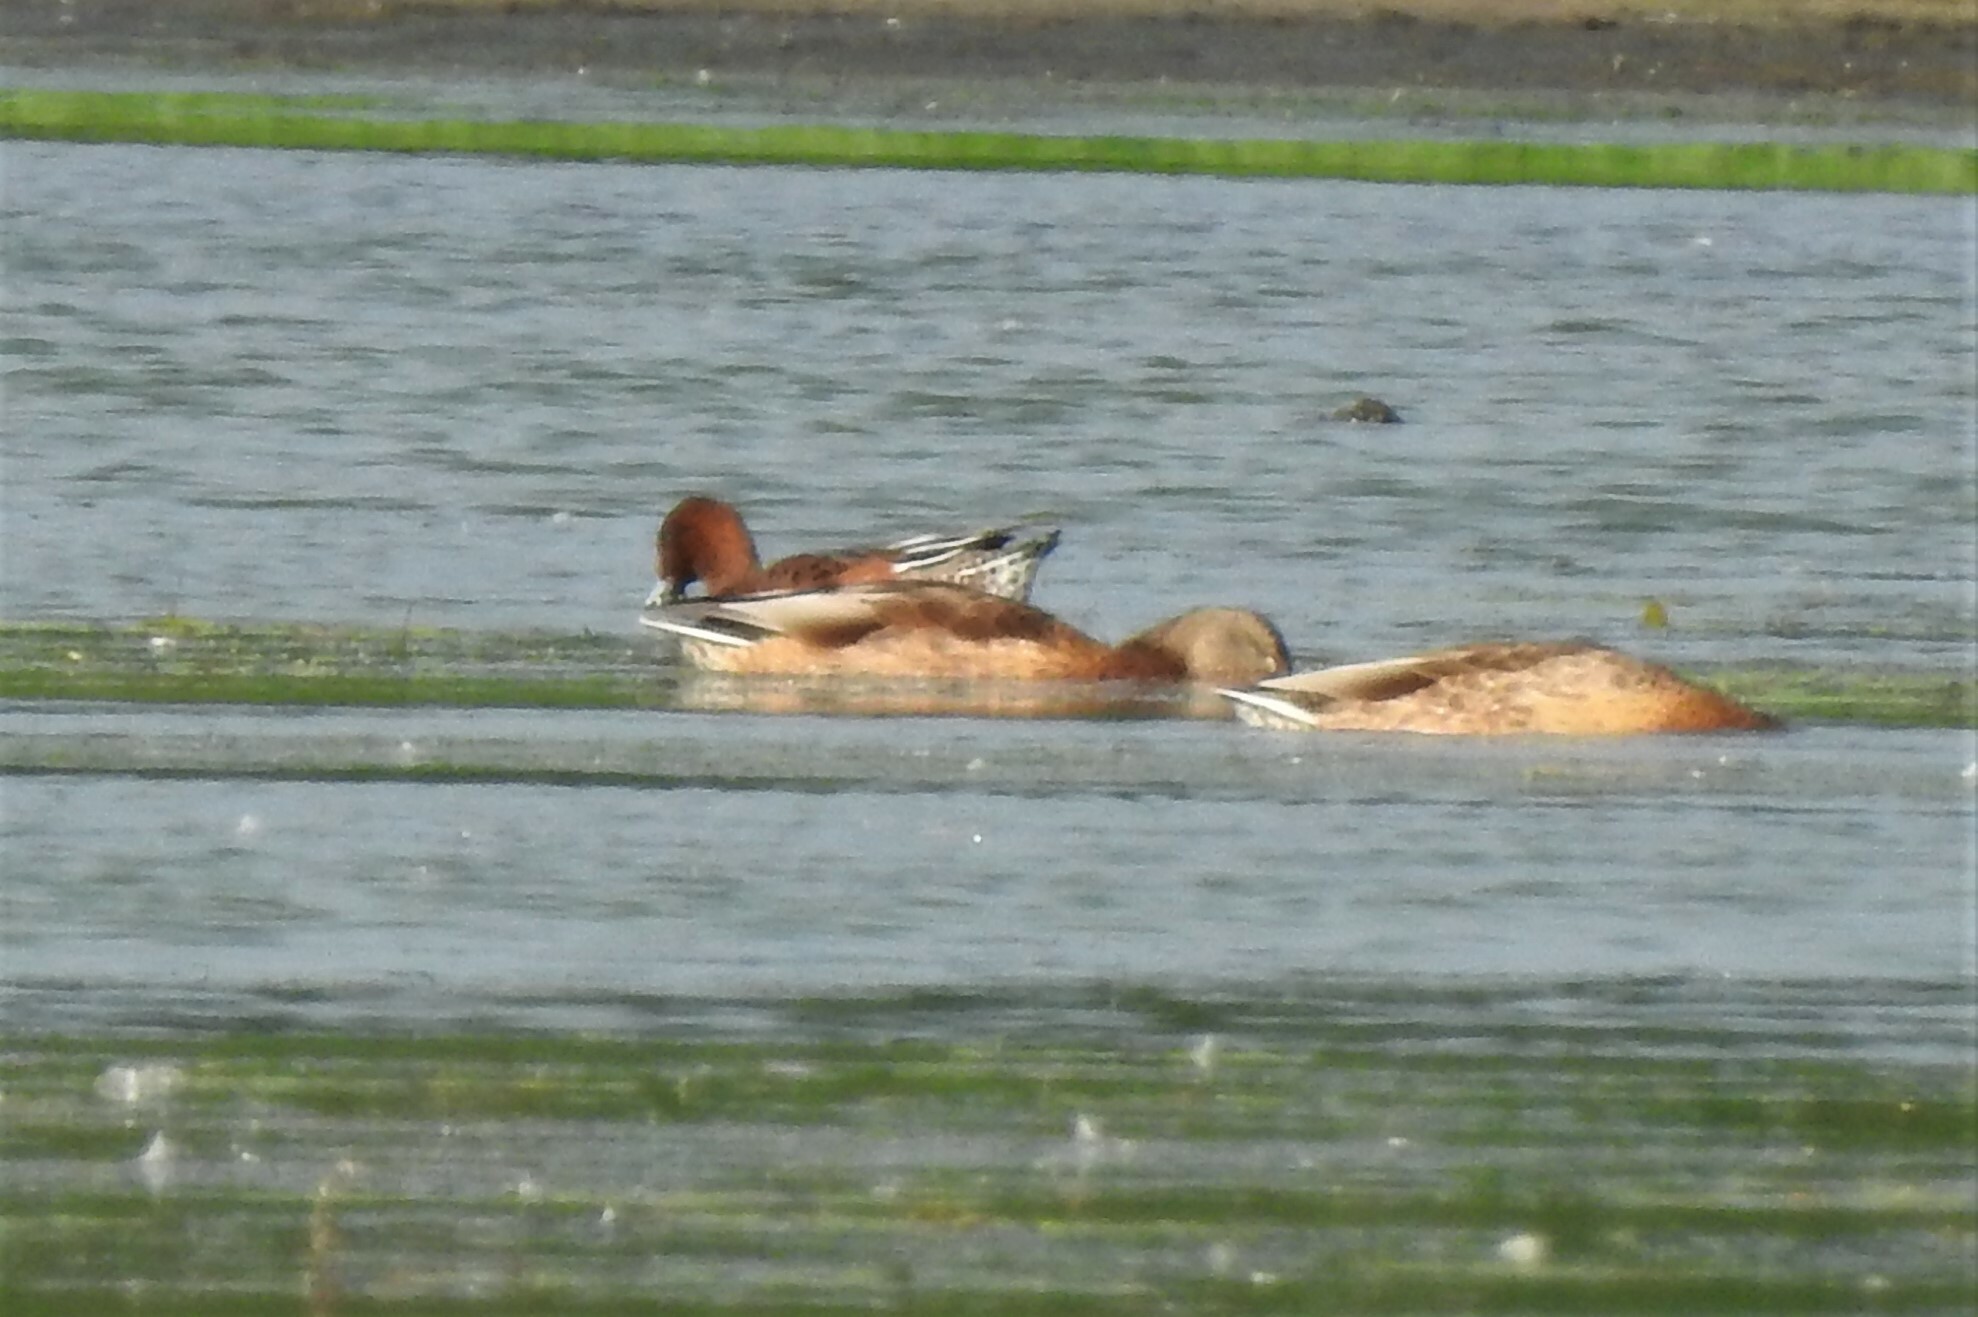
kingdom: Animalia
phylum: Chordata
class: Aves
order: Anseriformes
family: Anatidae
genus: Mareca
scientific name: Mareca penelope
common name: Eurasian wigeon
